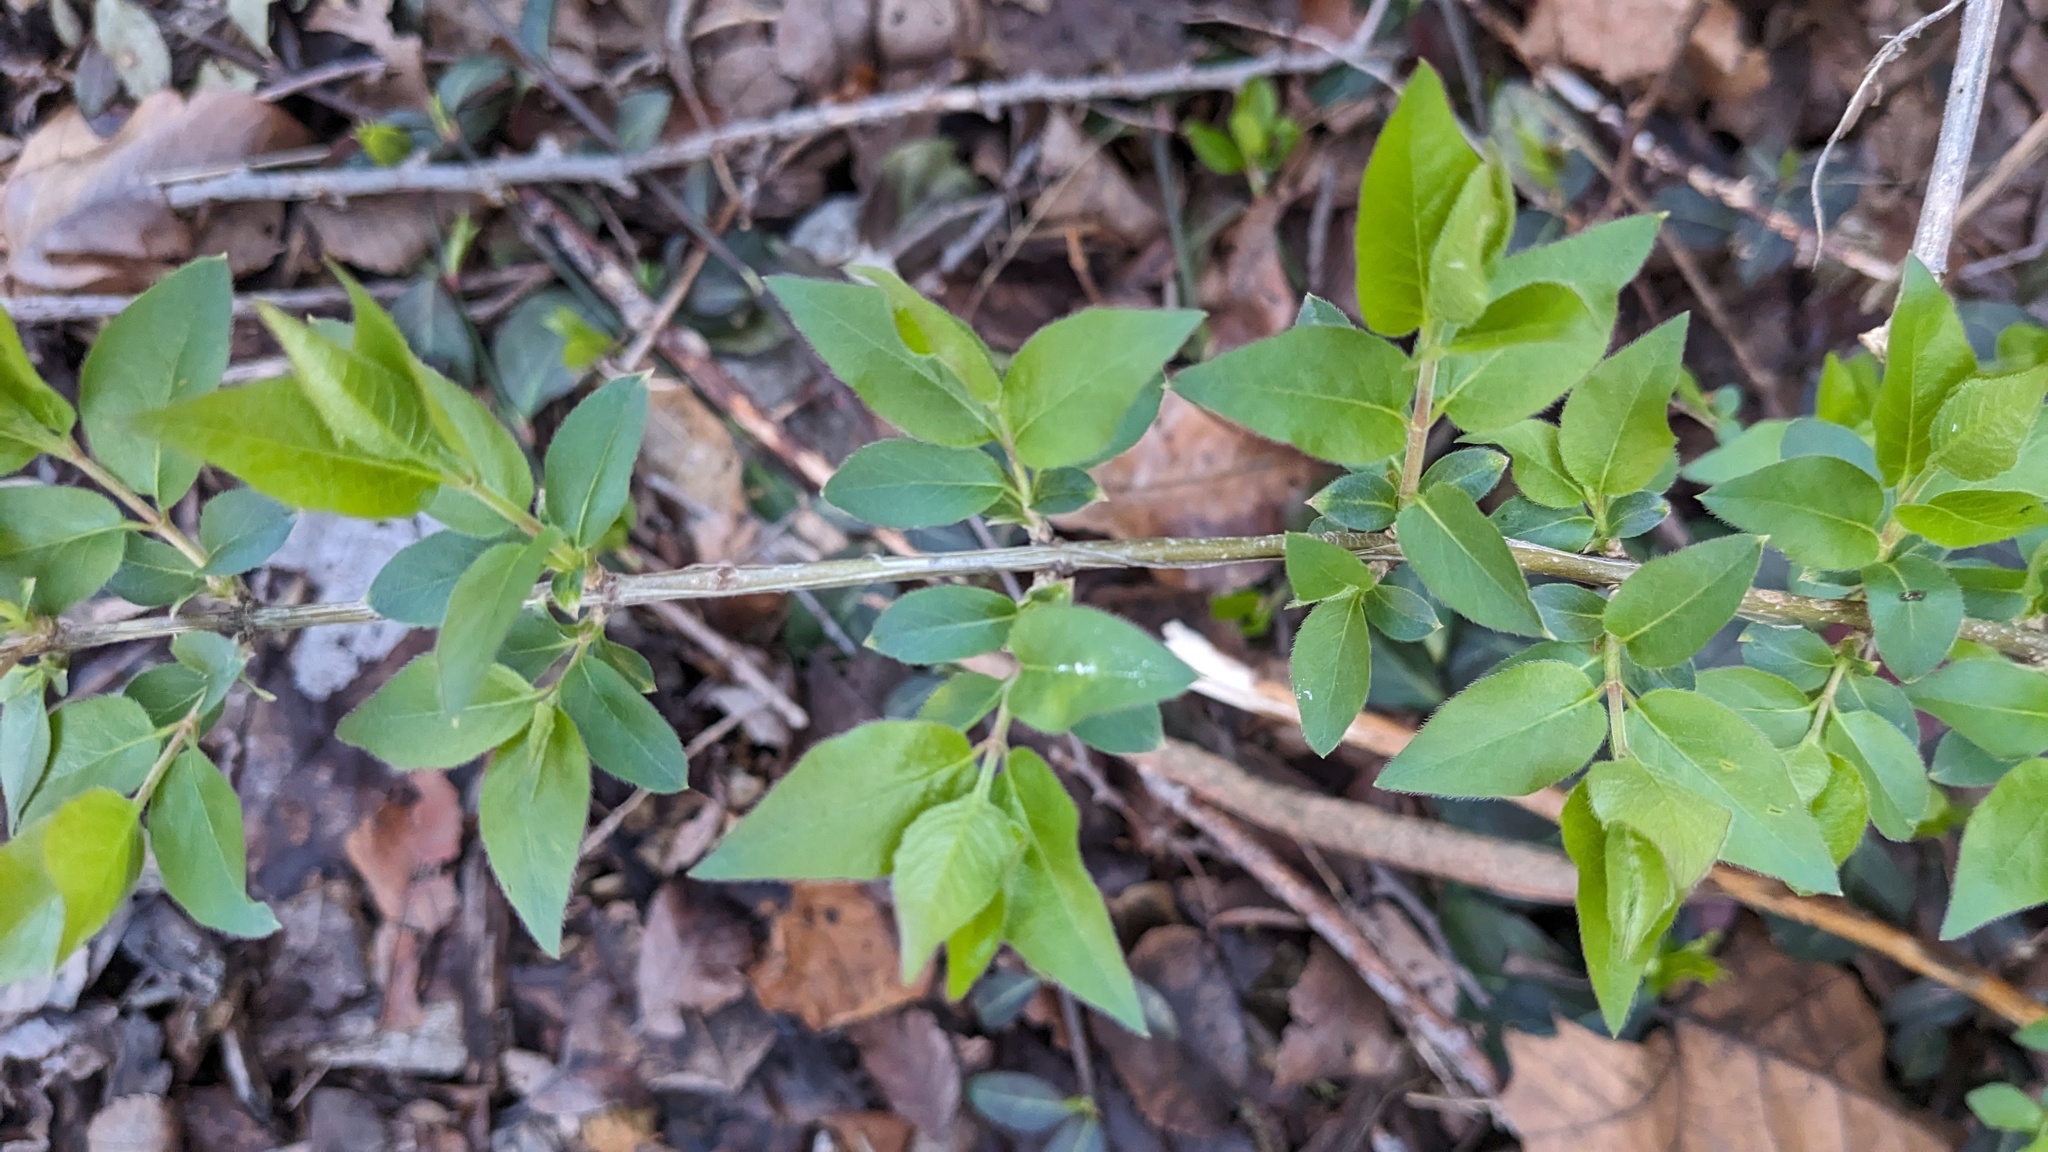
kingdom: Plantae
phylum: Tracheophyta
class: Magnoliopsida
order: Celastrales
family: Celastraceae
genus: Euonymus
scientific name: Euonymus alatus
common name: Winged euonymus
